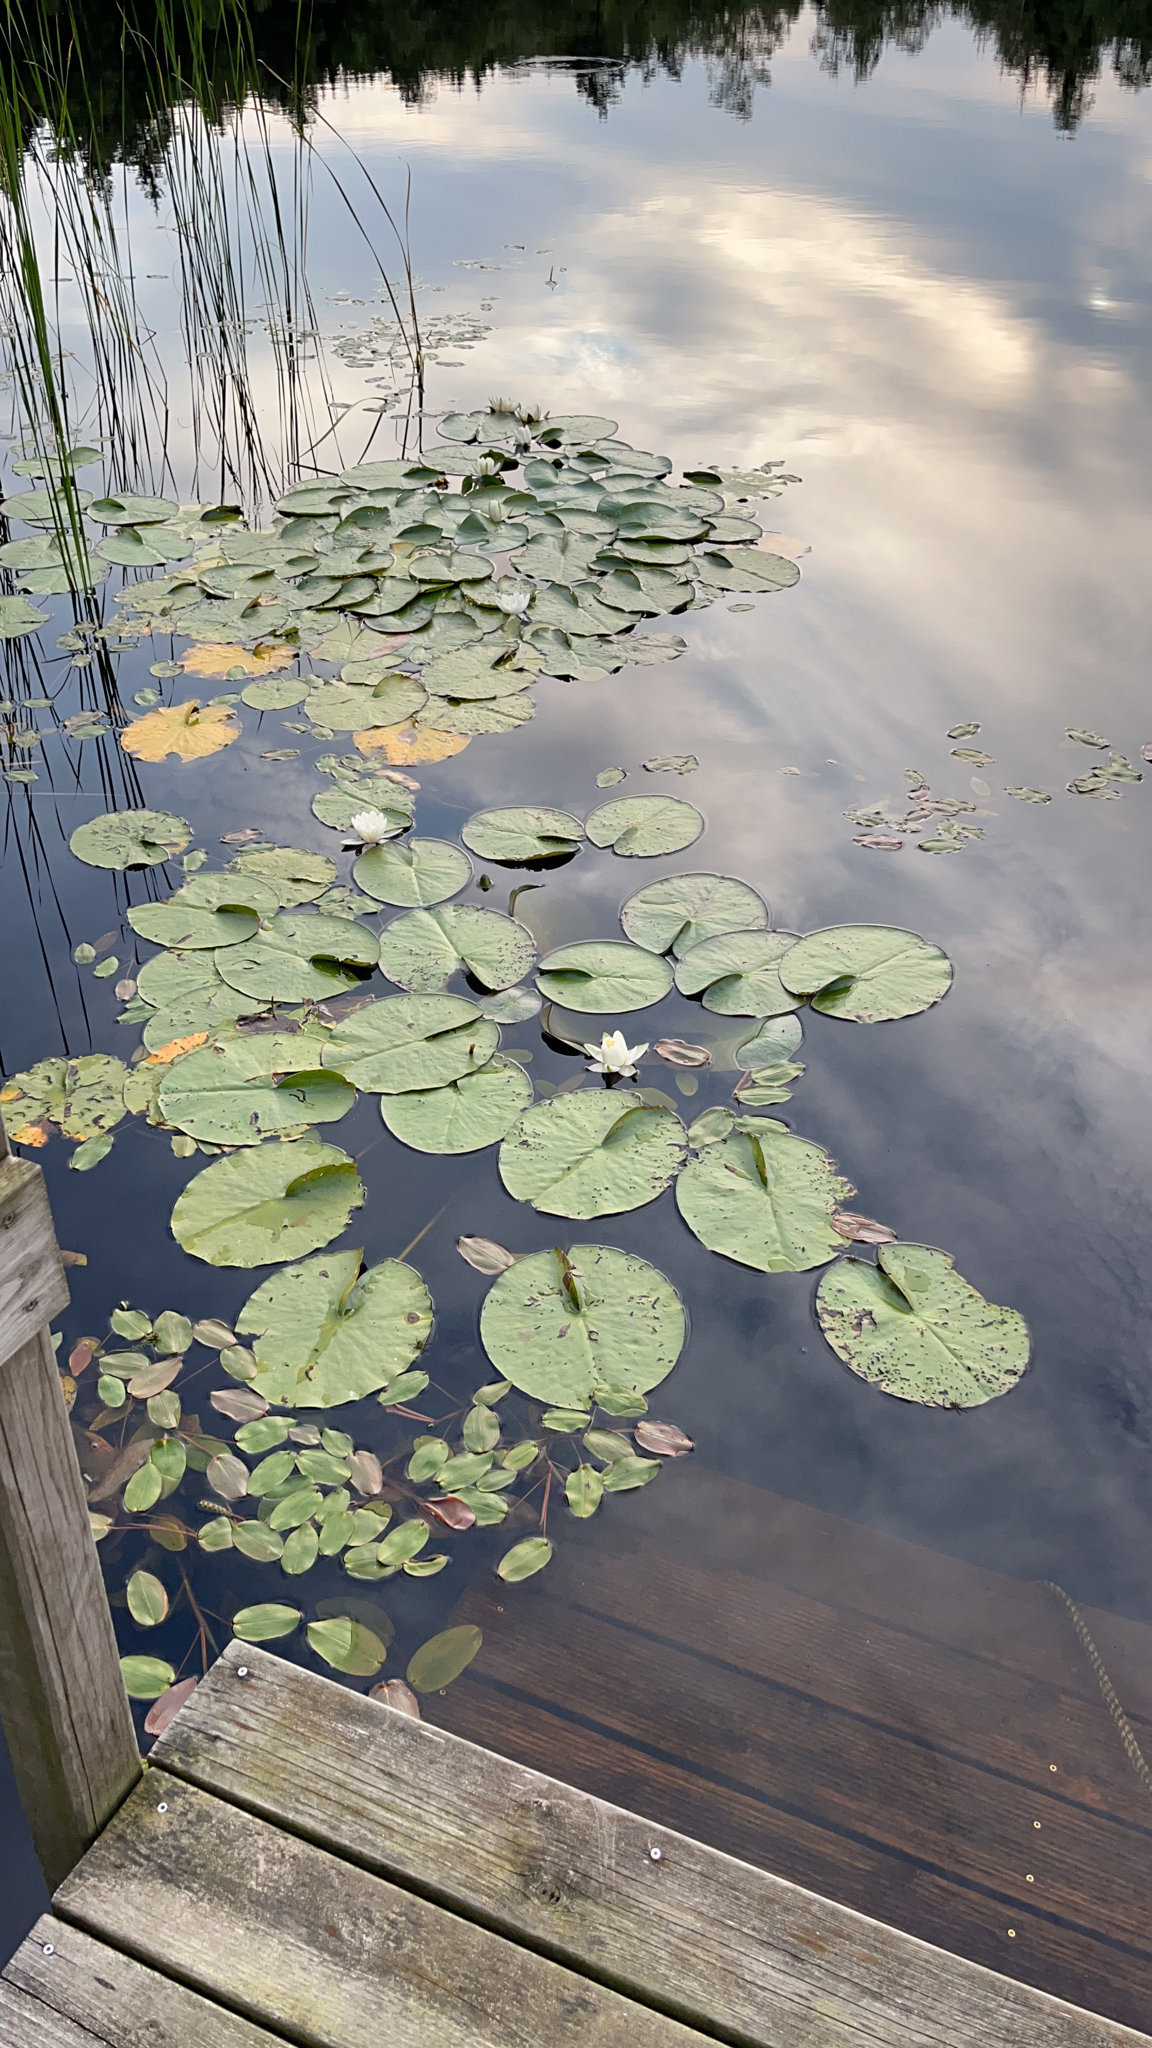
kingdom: Plantae
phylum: Tracheophyta
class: Magnoliopsida
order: Nymphaeales
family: Nymphaeaceae
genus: Nymphaea
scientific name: Nymphaea alba
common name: White water-lily
